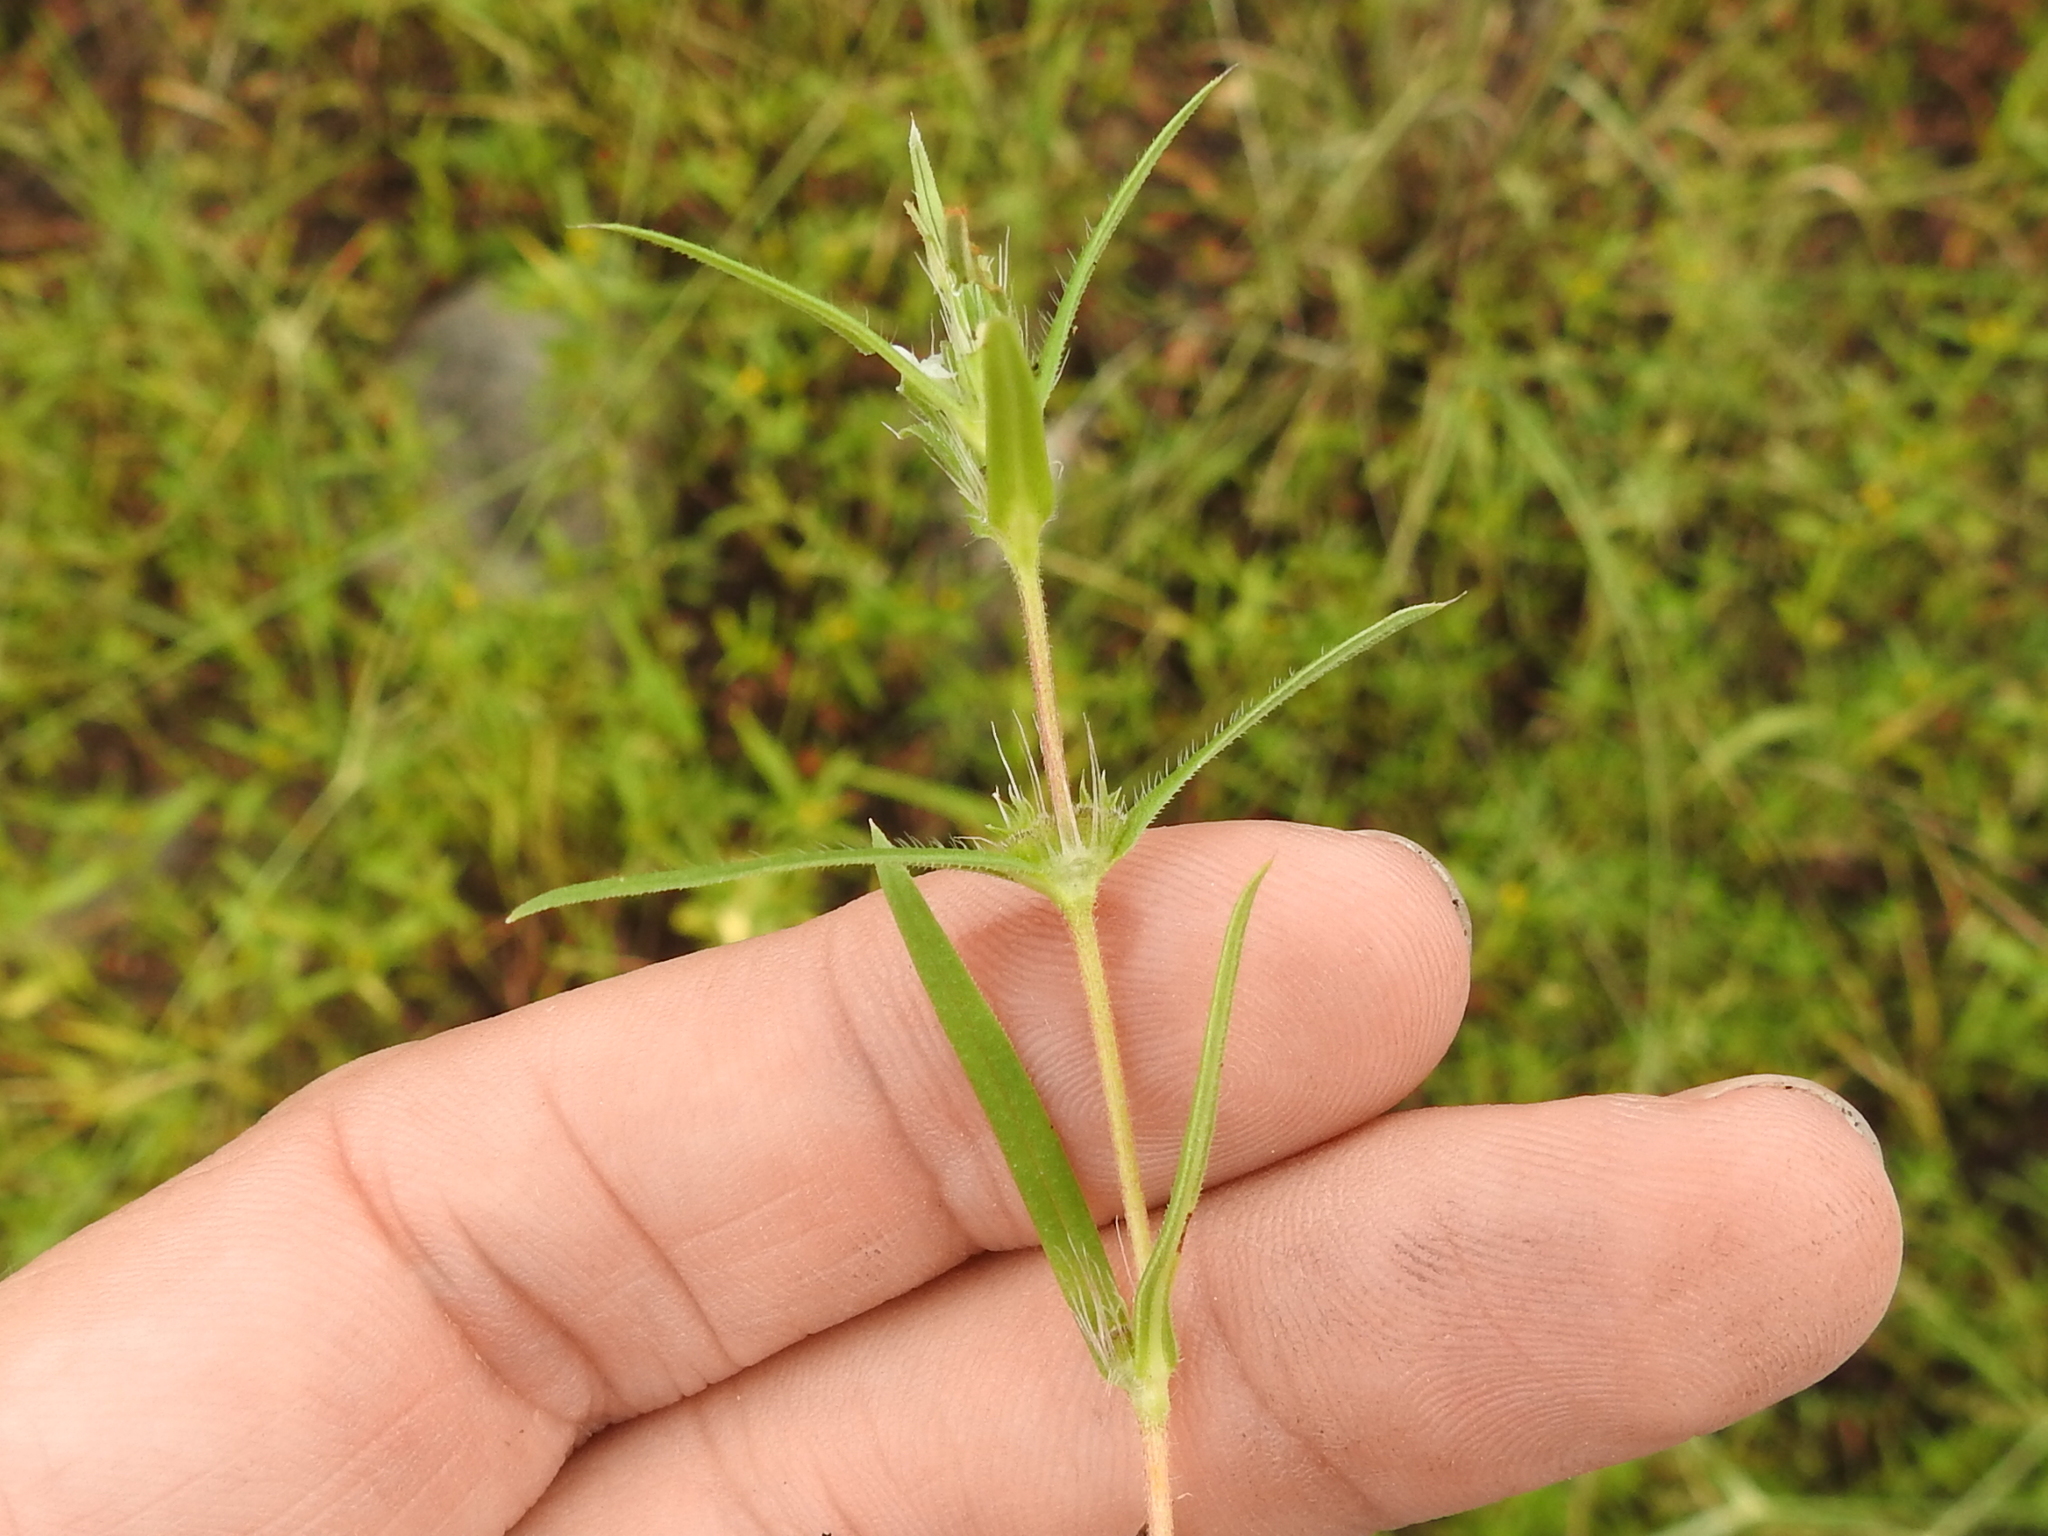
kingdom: Plantae
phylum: Tracheophyta
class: Magnoliopsida
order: Gentianales
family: Rubiaceae
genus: Hexasepalum
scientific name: Hexasepalum teres
